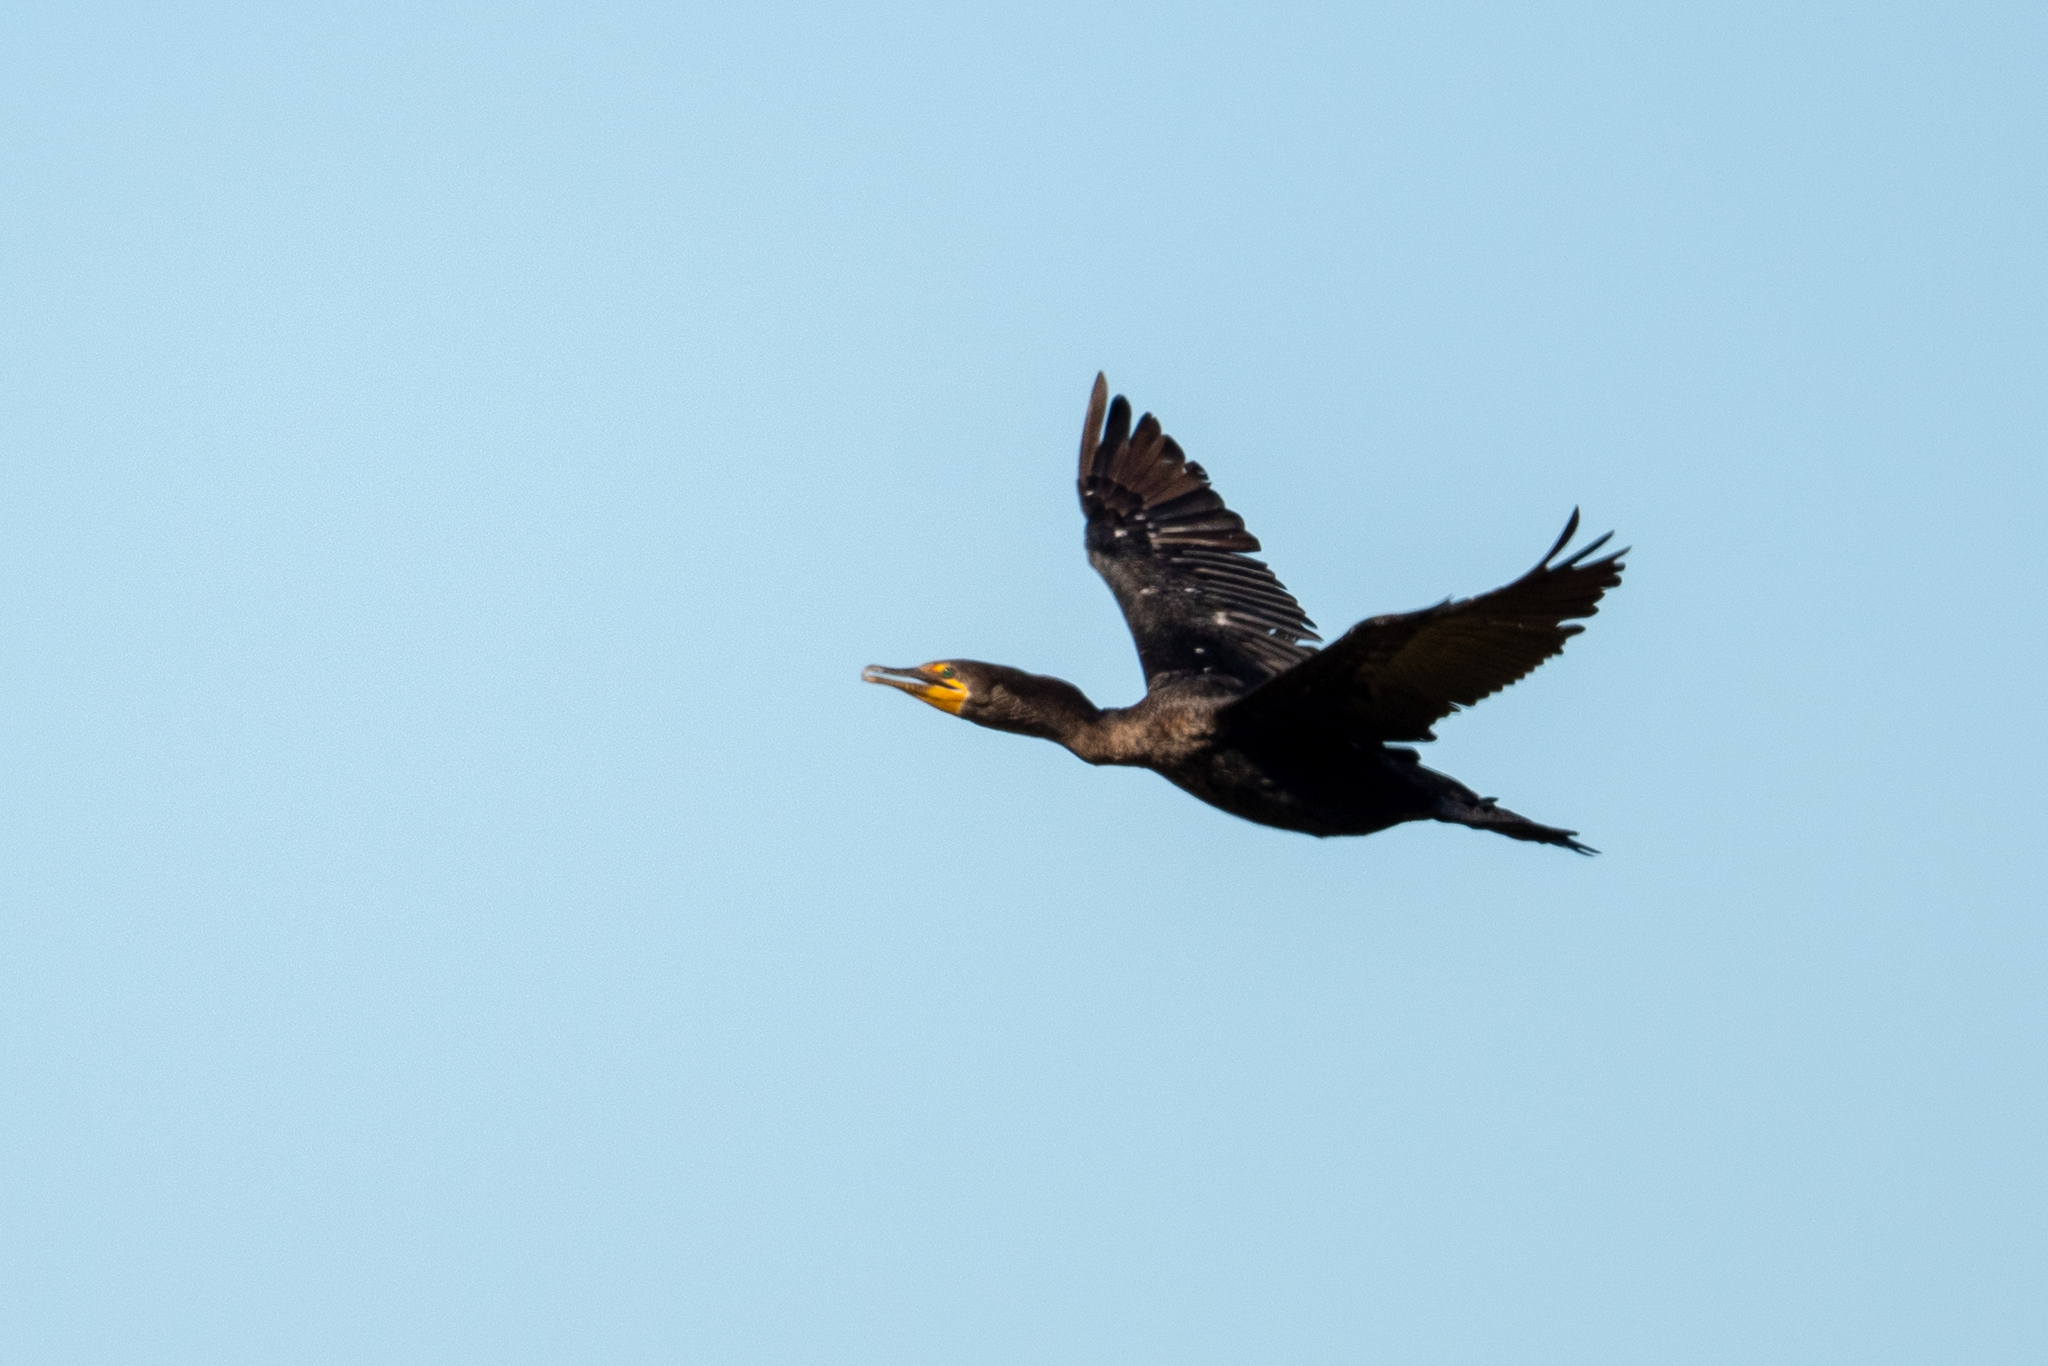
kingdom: Animalia
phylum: Chordata
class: Aves
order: Suliformes
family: Phalacrocoracidae
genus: Phalacrocorax
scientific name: Phalacrocorax auritus
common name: Double-crested cormorant
